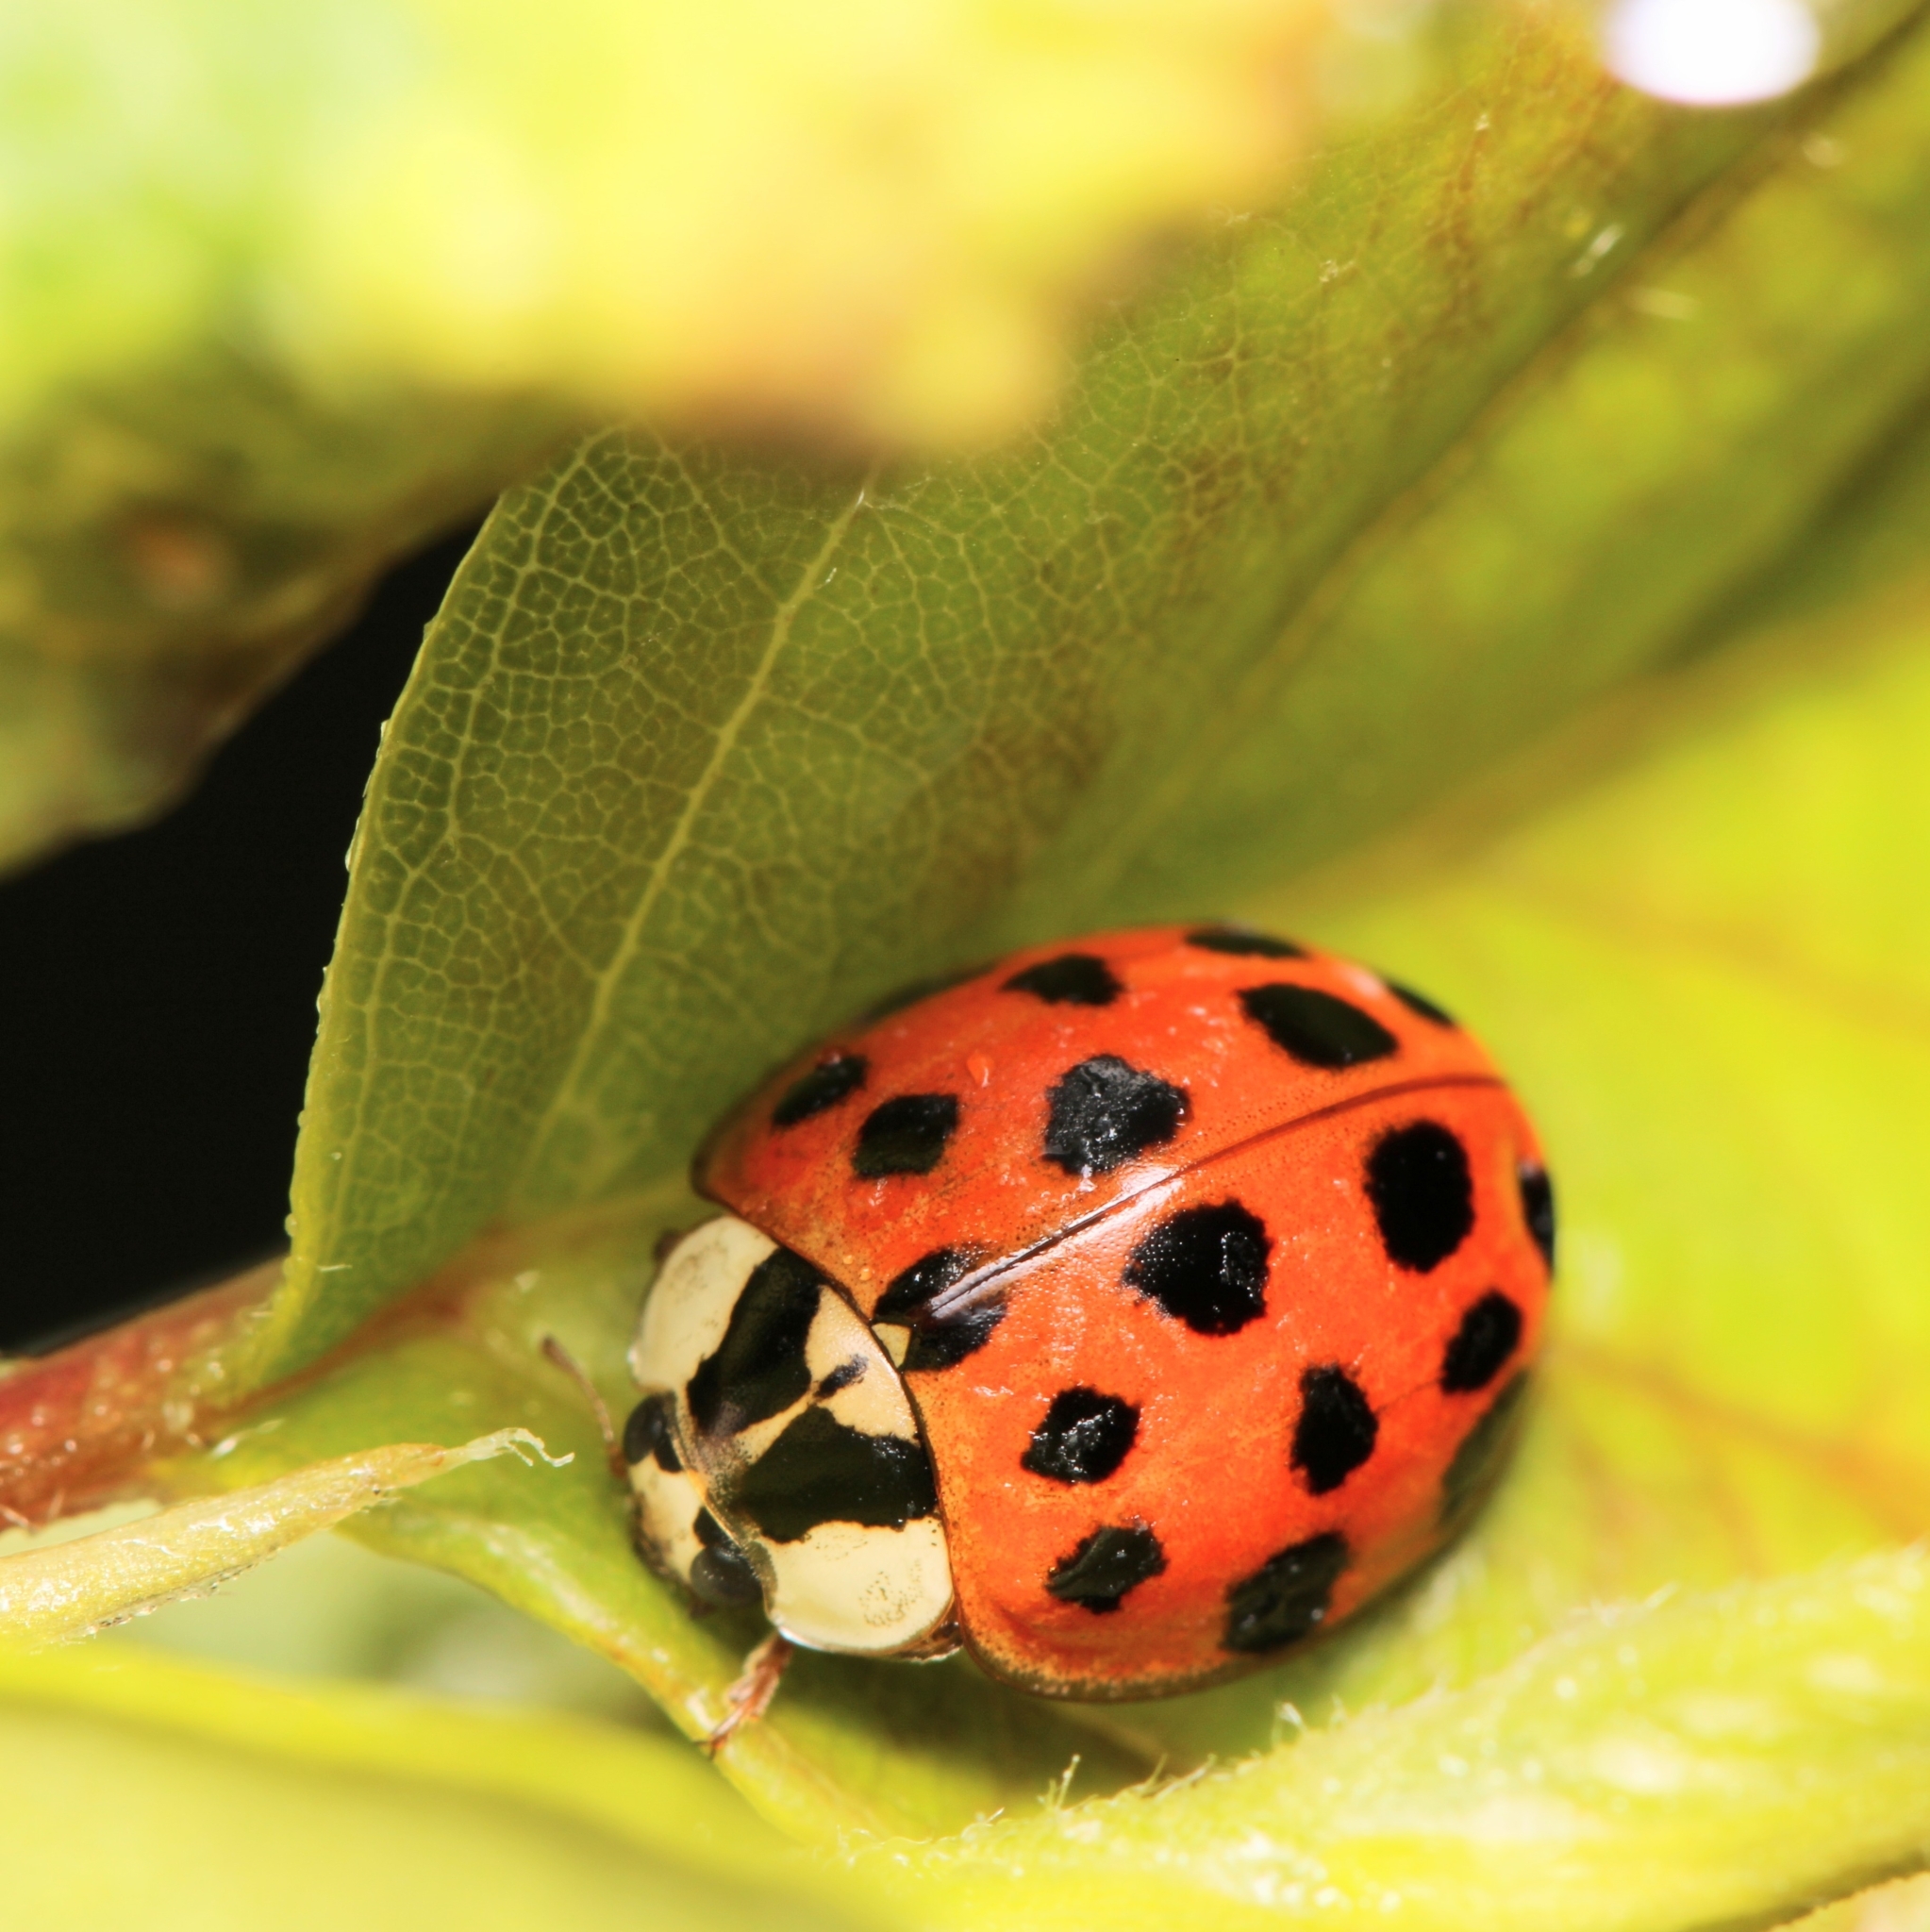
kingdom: Animalia
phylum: Arthropoda
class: Insecta
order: Coleoptera
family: Coccinellidae
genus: Harmonia
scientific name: Harmonia axyridis
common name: Harlequin ladybird
